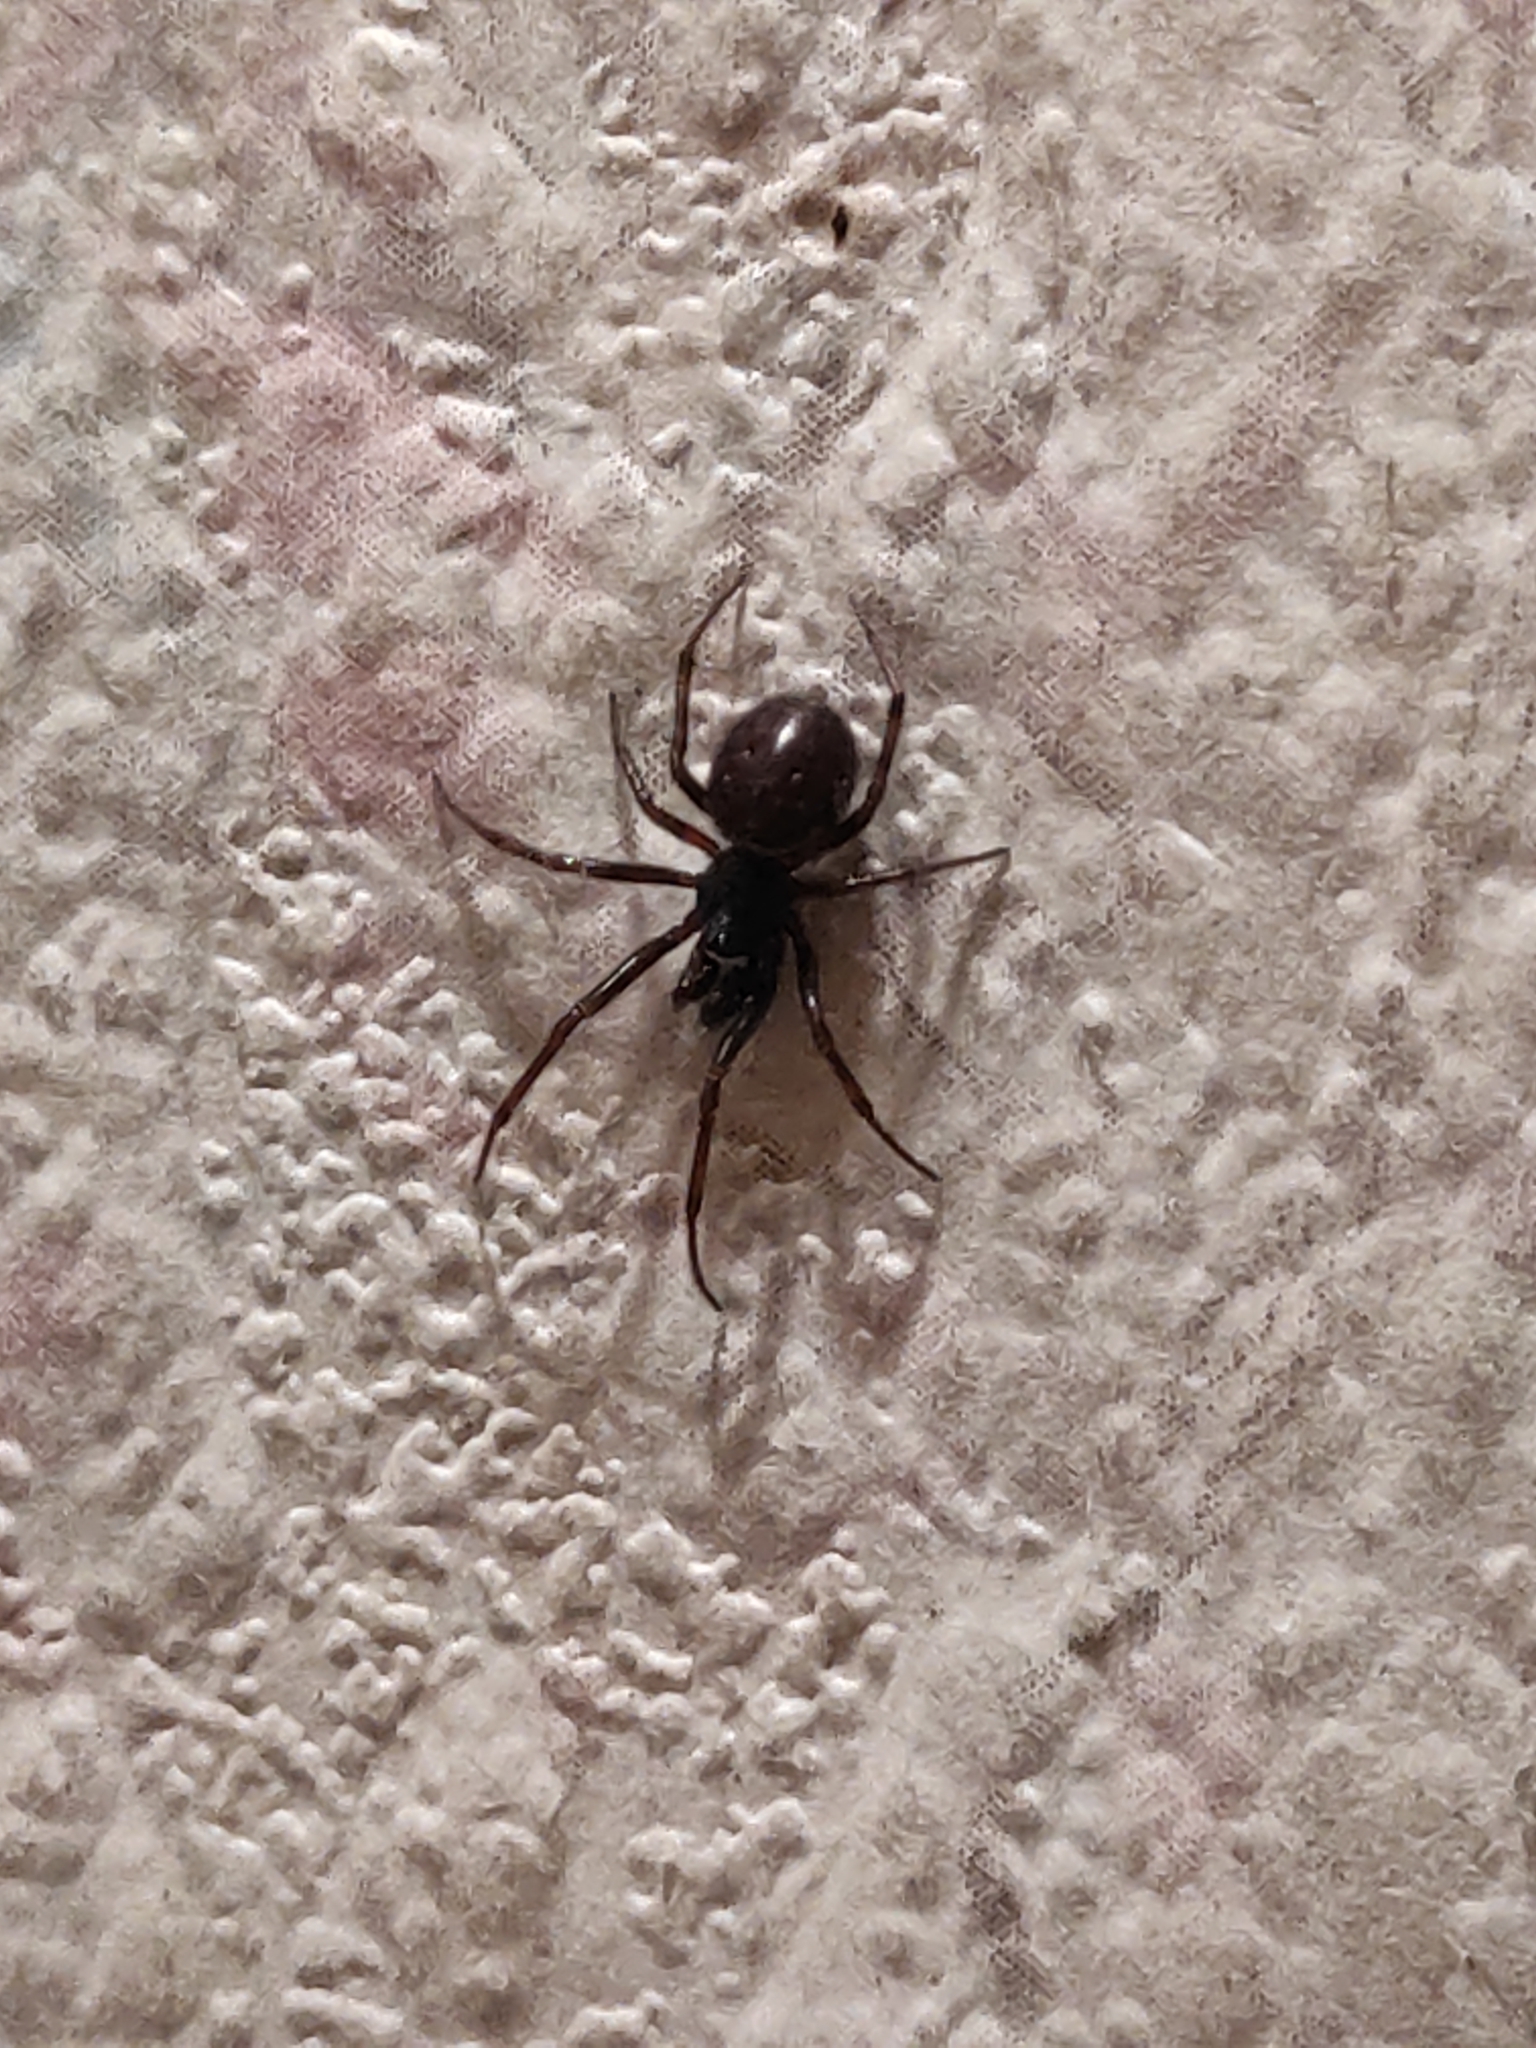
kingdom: Animalia
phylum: Arthropoda
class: Arachnida
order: Araneae
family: Theridiidae
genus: Steatoda
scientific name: Steatoda bipunctata
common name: False widow
